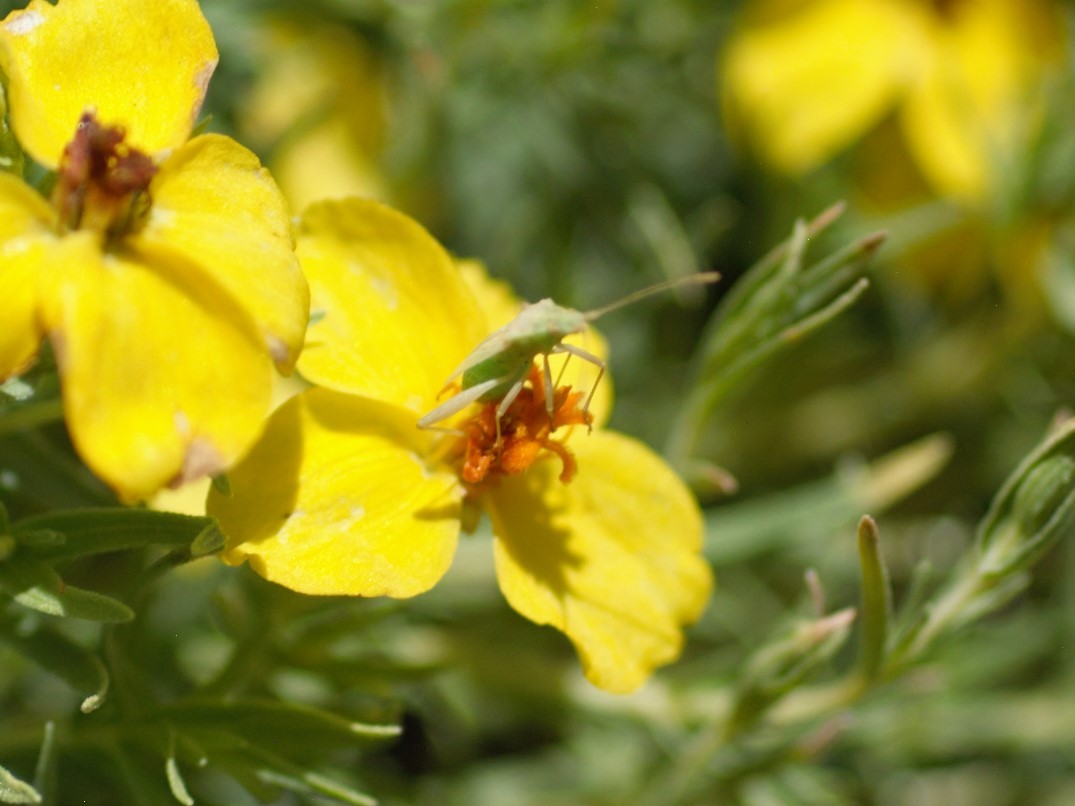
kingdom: Animalia
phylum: Arthropoda
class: Insecta
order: Hemiptera
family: Rhopalidae
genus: Harmostes
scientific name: Harmostes
